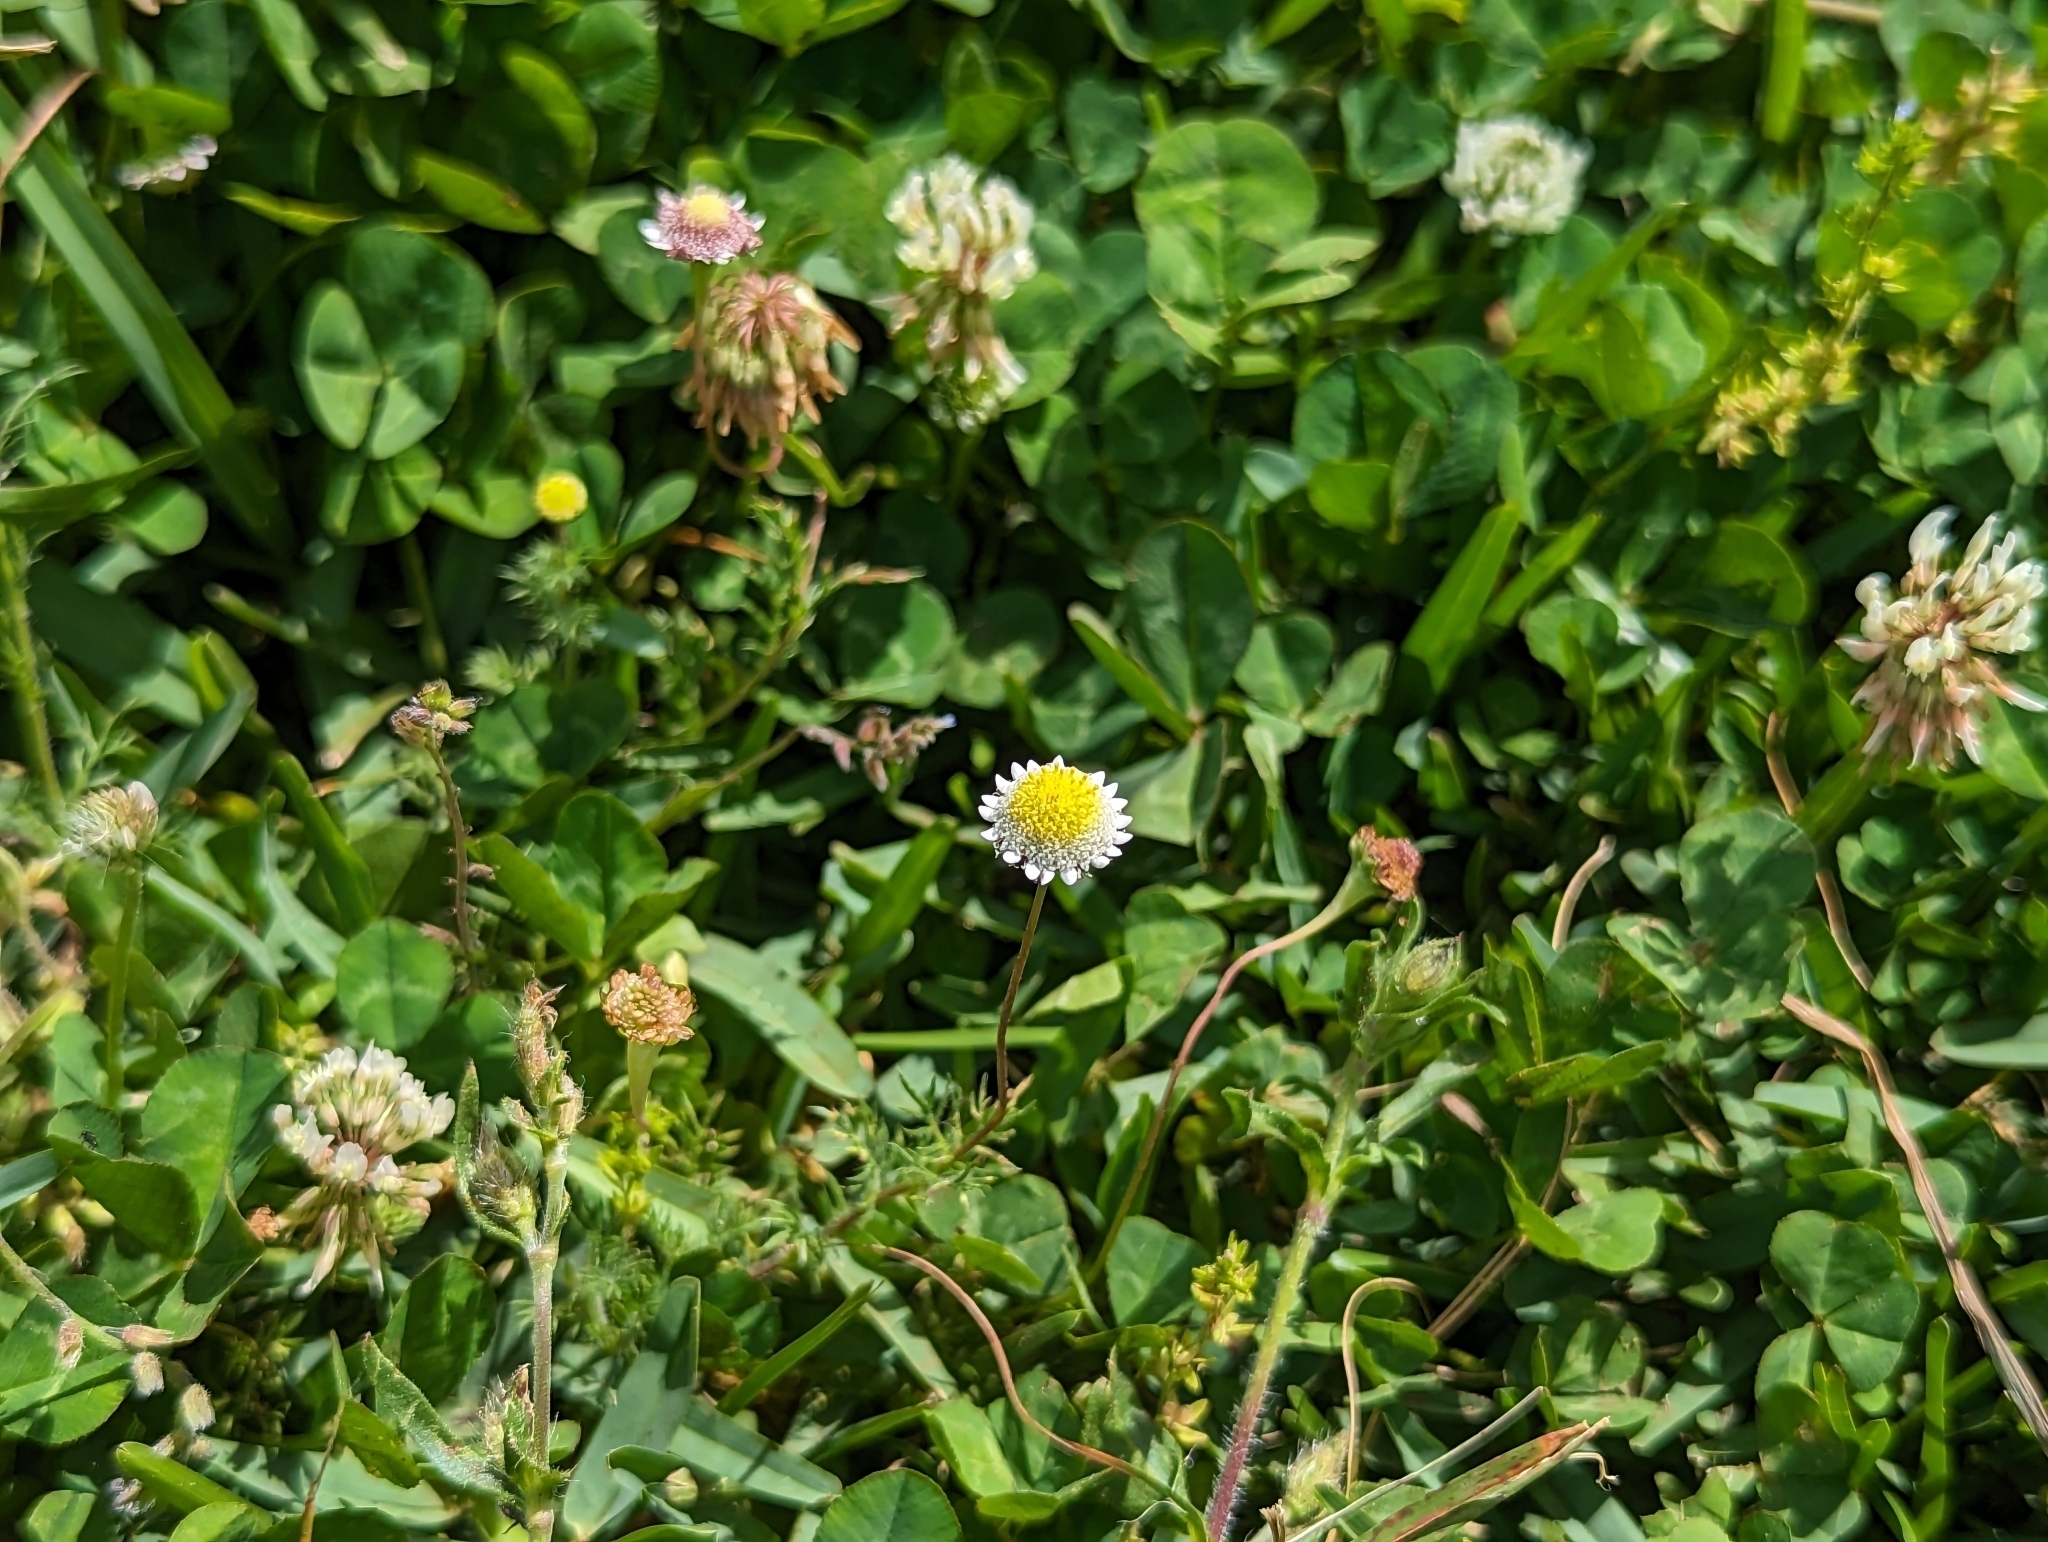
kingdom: Plantae
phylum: Tracheophyta
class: Magnoliopsida
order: Asterales
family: Asteraceae
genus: Cotula
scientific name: Cotula turbinata
